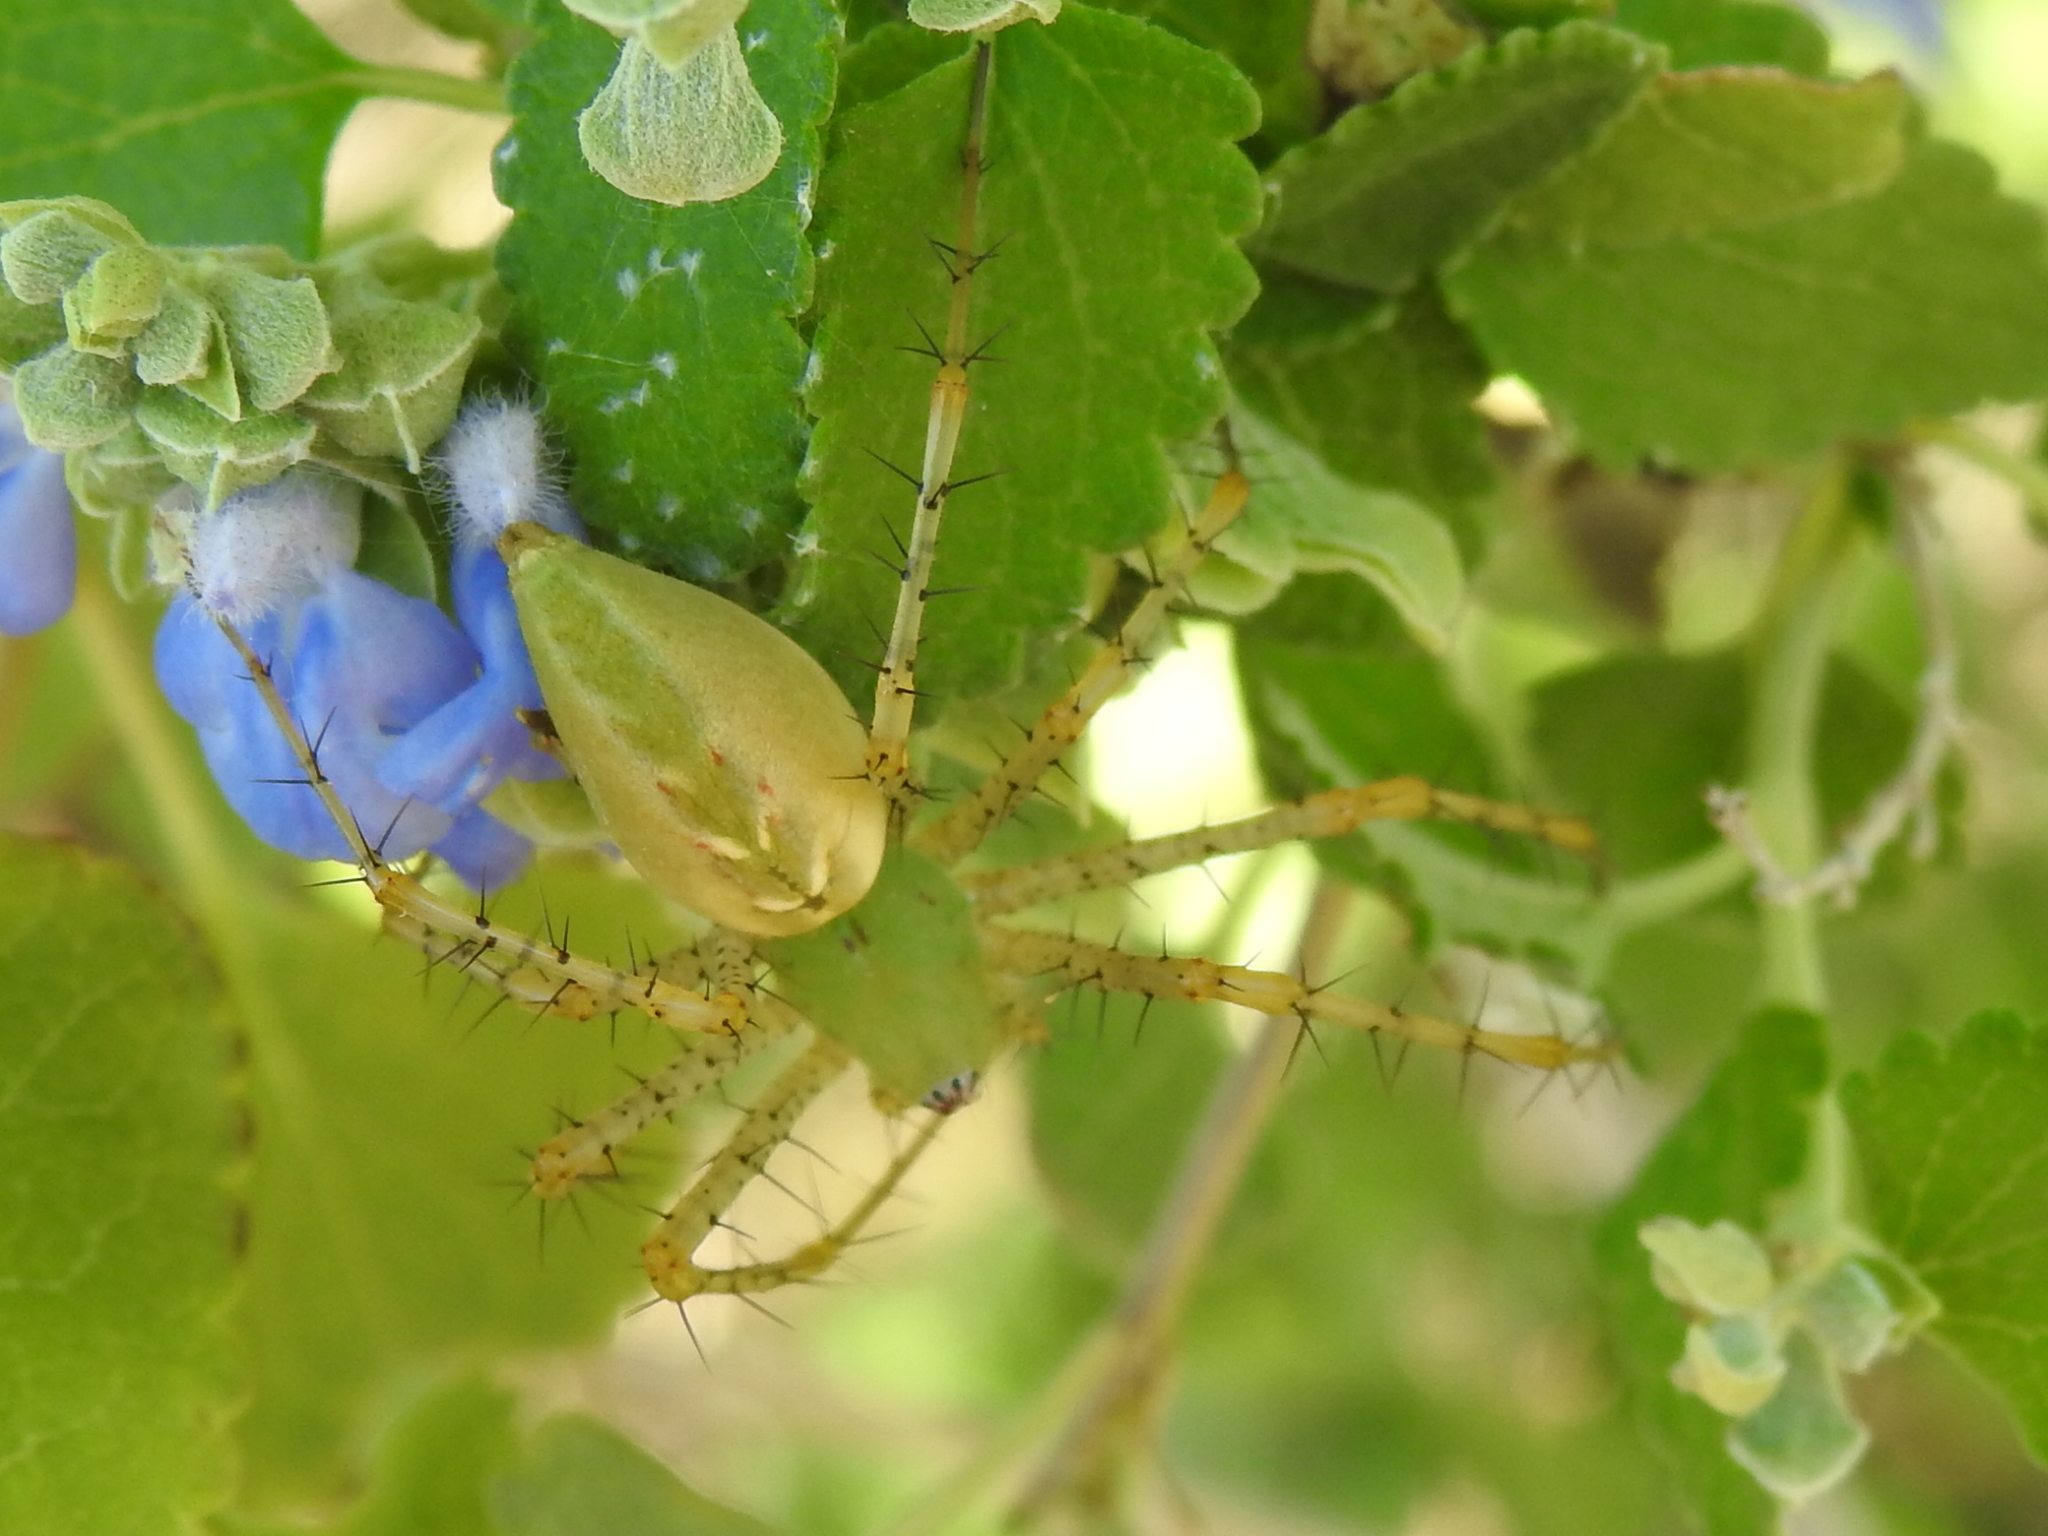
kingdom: Animalia
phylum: Arthropoda
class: Arachnida
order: Araneae
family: Oxyopidae
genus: Peucetia
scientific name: Peucetia viridans
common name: Lynx spiders
